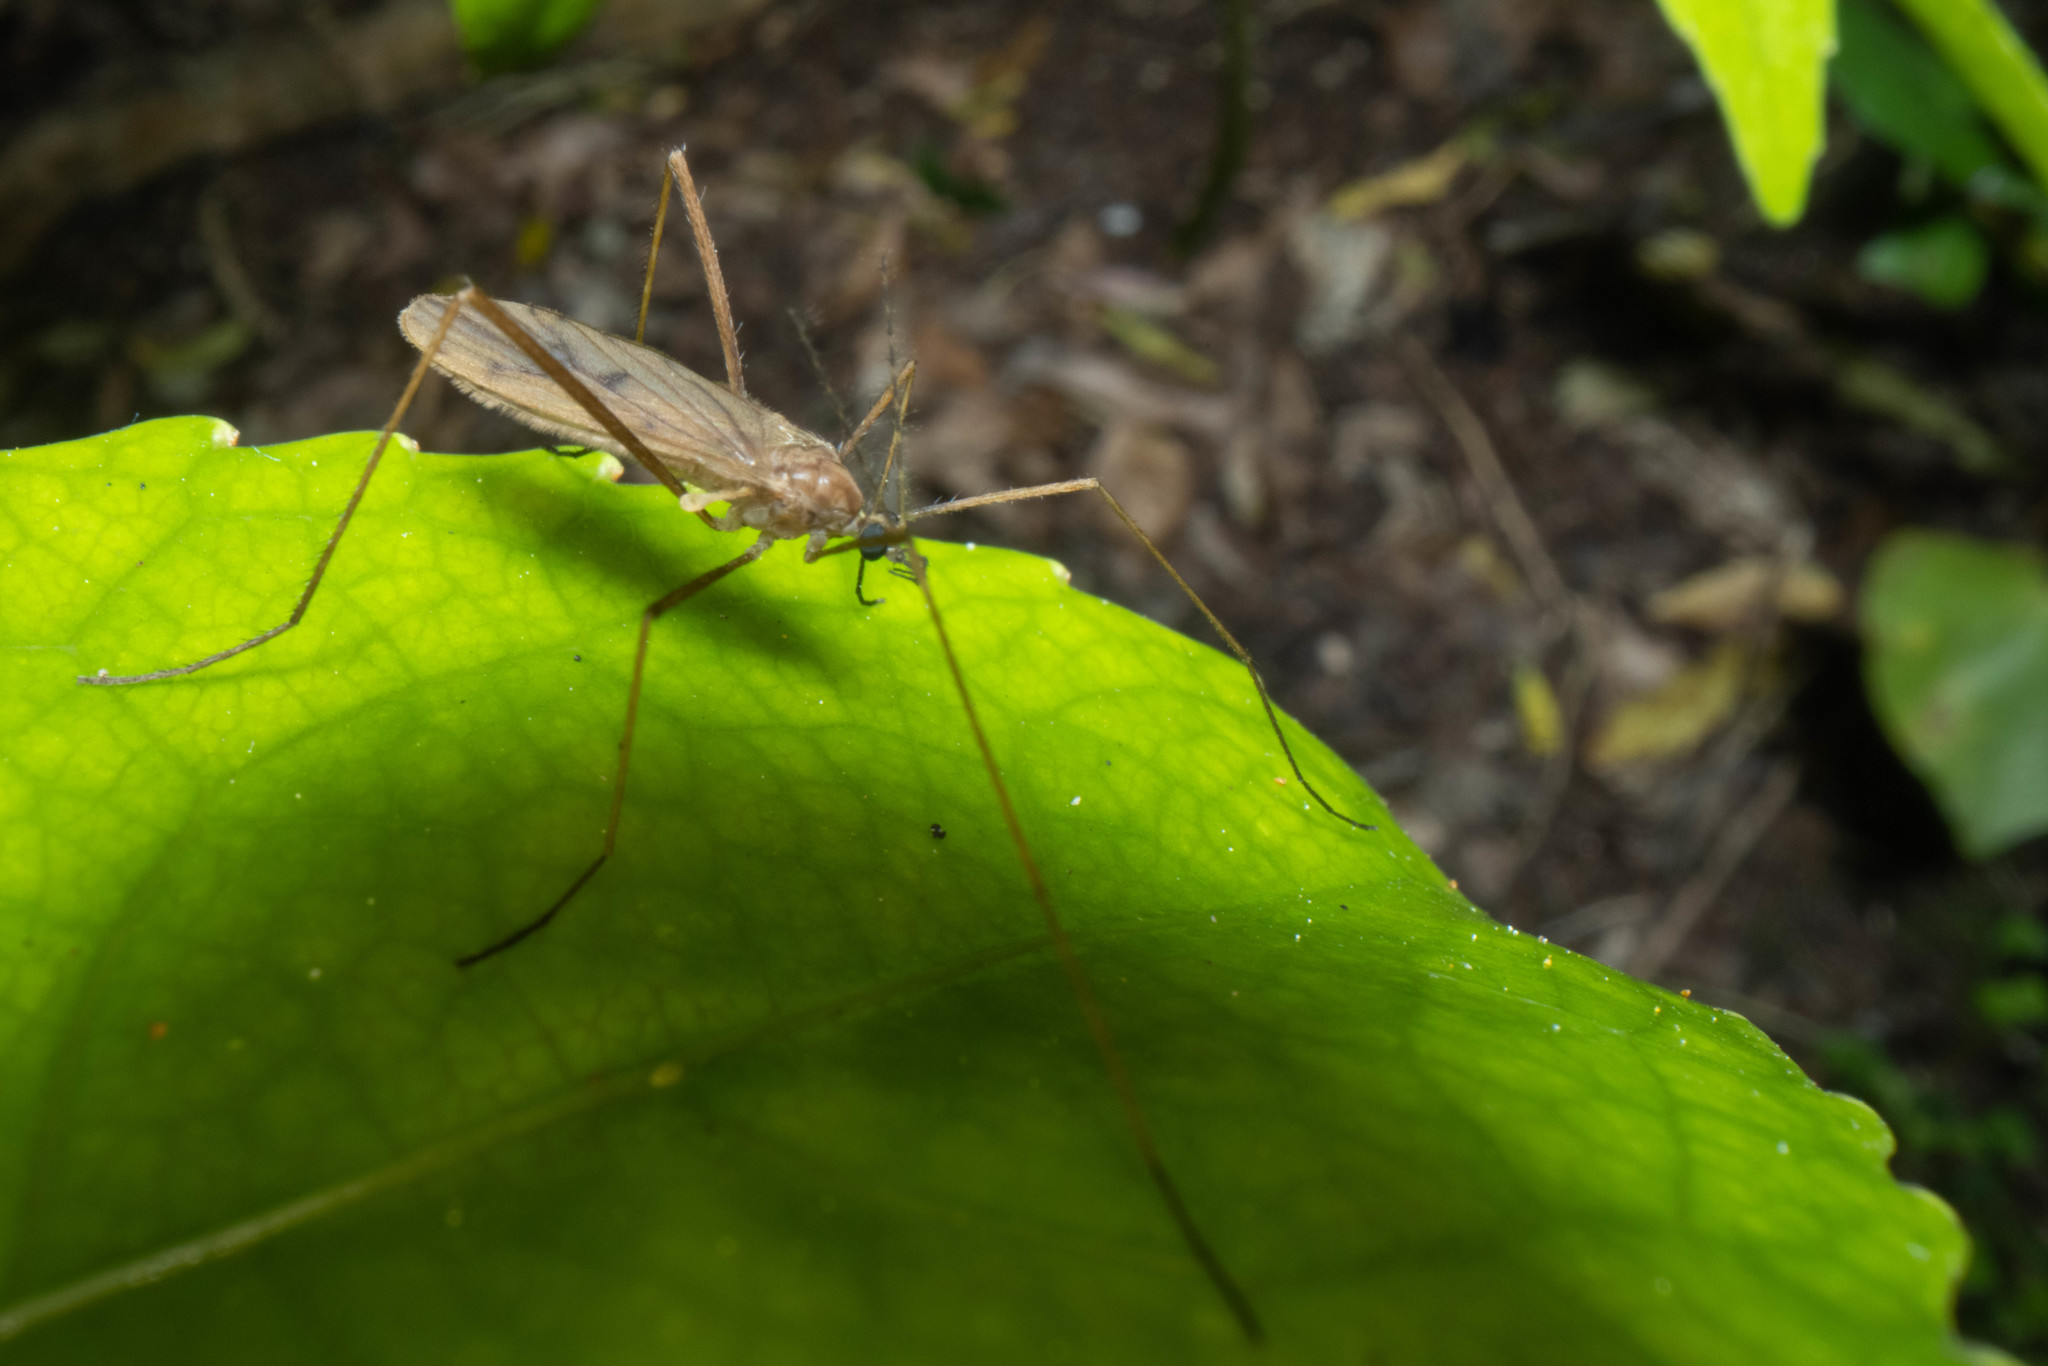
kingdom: Animalia
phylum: Arthropoda
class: Insecta
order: Diptera
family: Limoniidae
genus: Amphineurus
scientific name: Amphineurus insulsus
